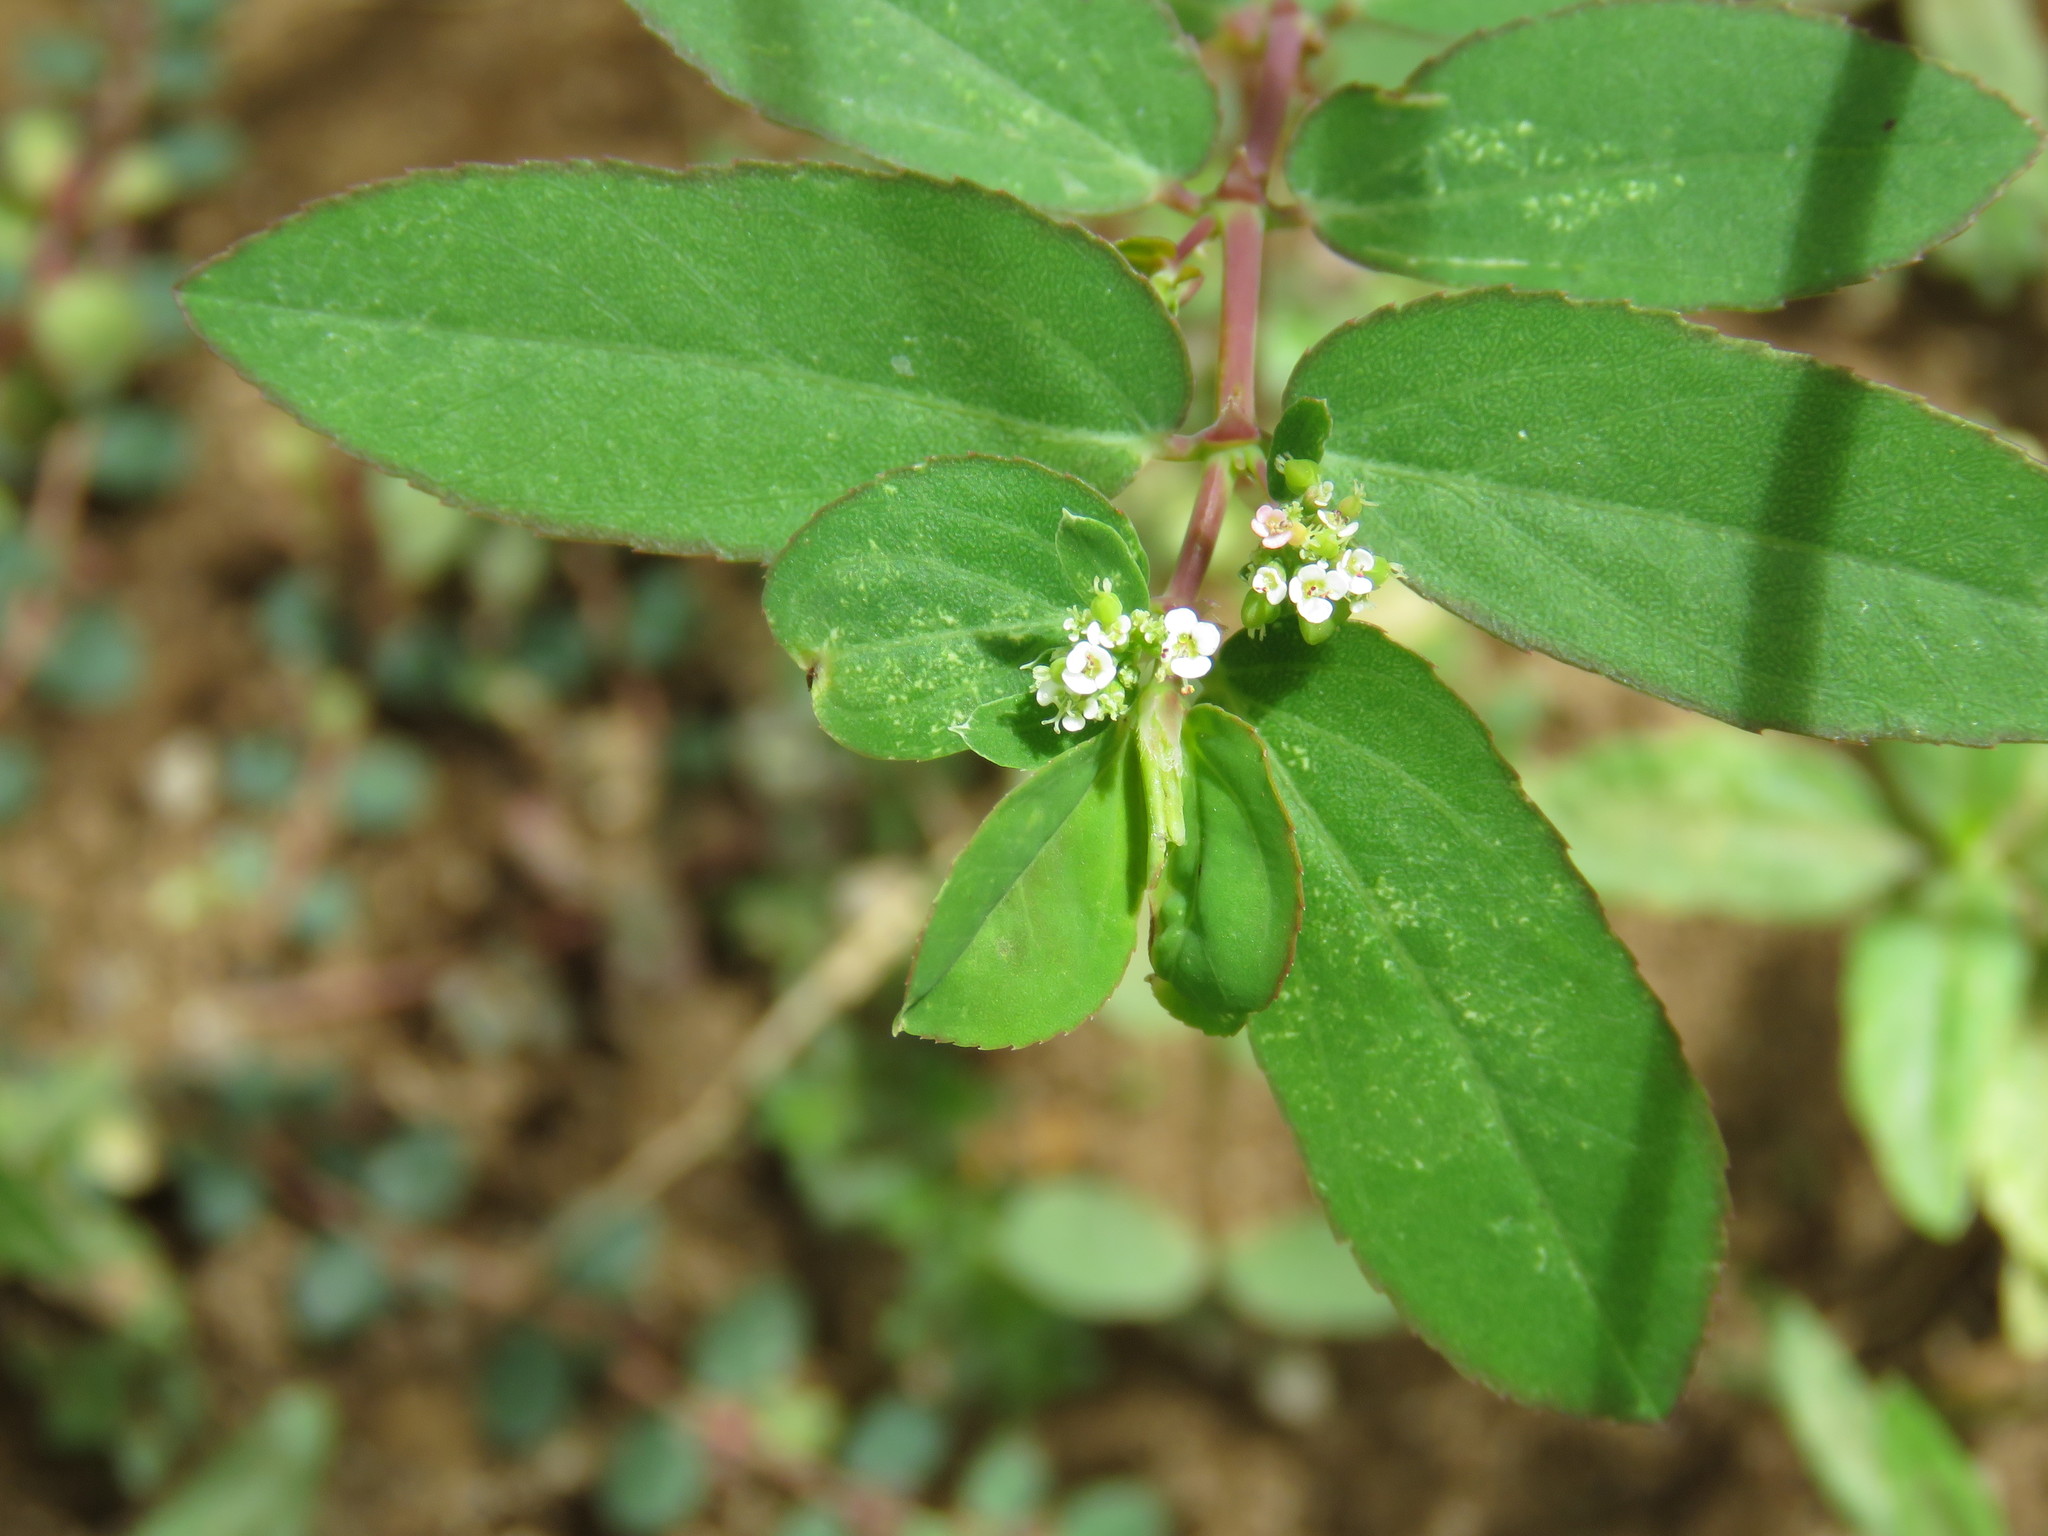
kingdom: Plantae
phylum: Tracheophyta
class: Magnoliopsida
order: Malpighiales
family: Euphorbiaceae
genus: Euphorbia
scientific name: Euphorbia hypericifolia
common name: Graceful sandmat
